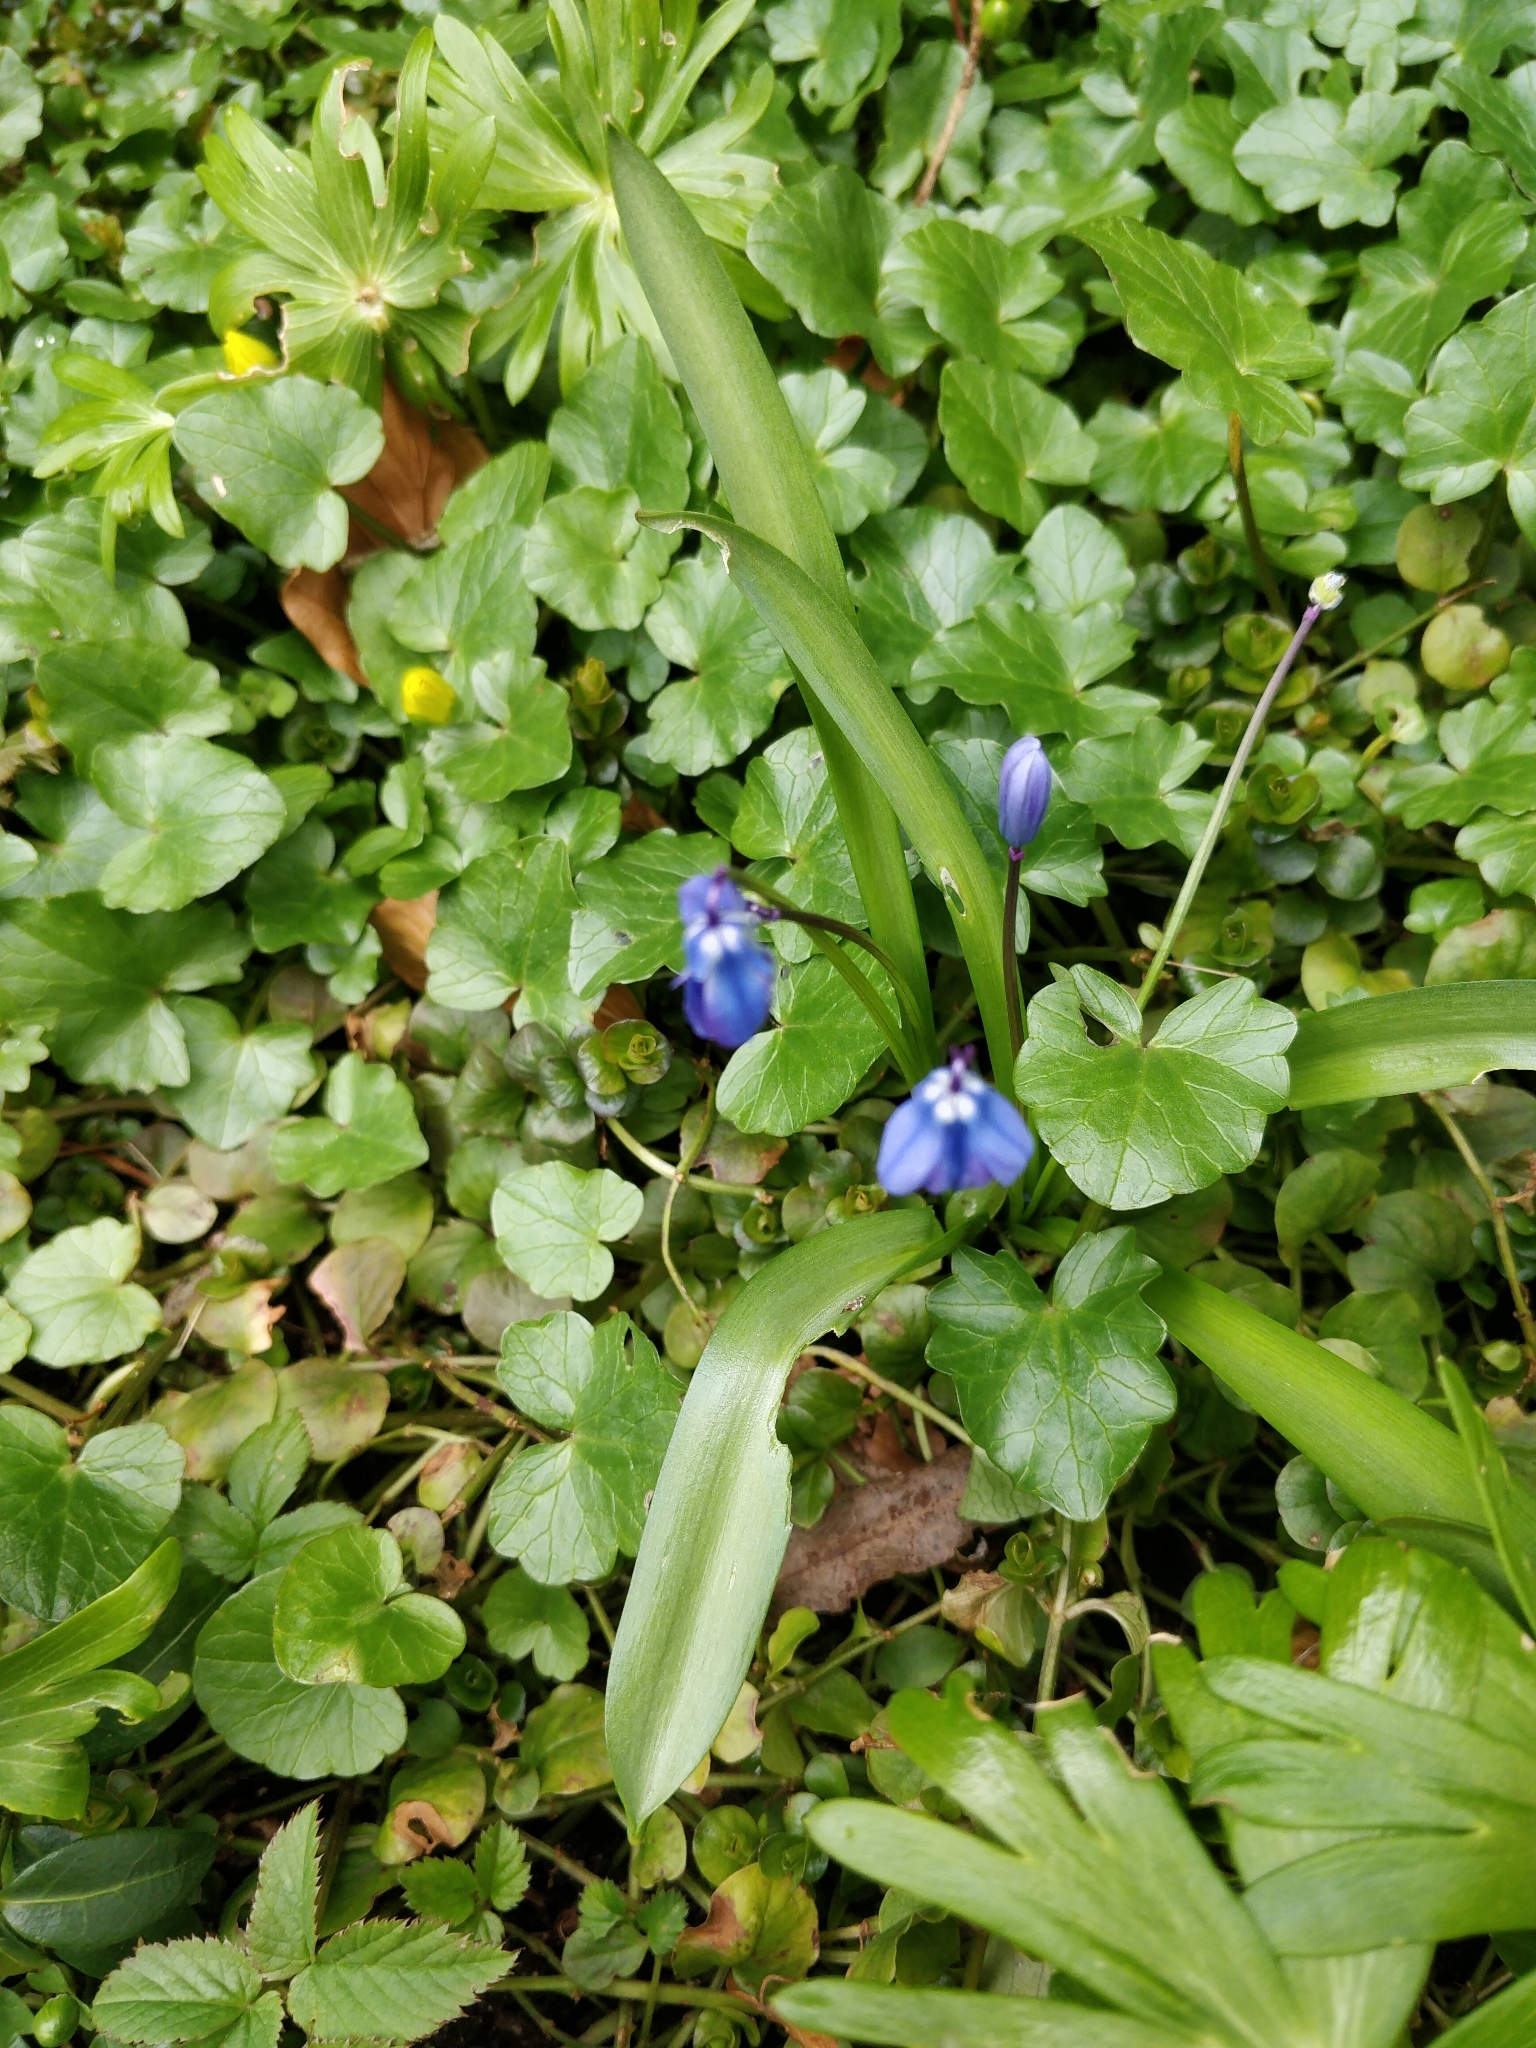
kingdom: Plantae
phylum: Tracheophyta
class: Liliopsida
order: Asparagales
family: Asparagaceae
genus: Scilla
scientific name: Scilla siberica
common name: Siberian squill
